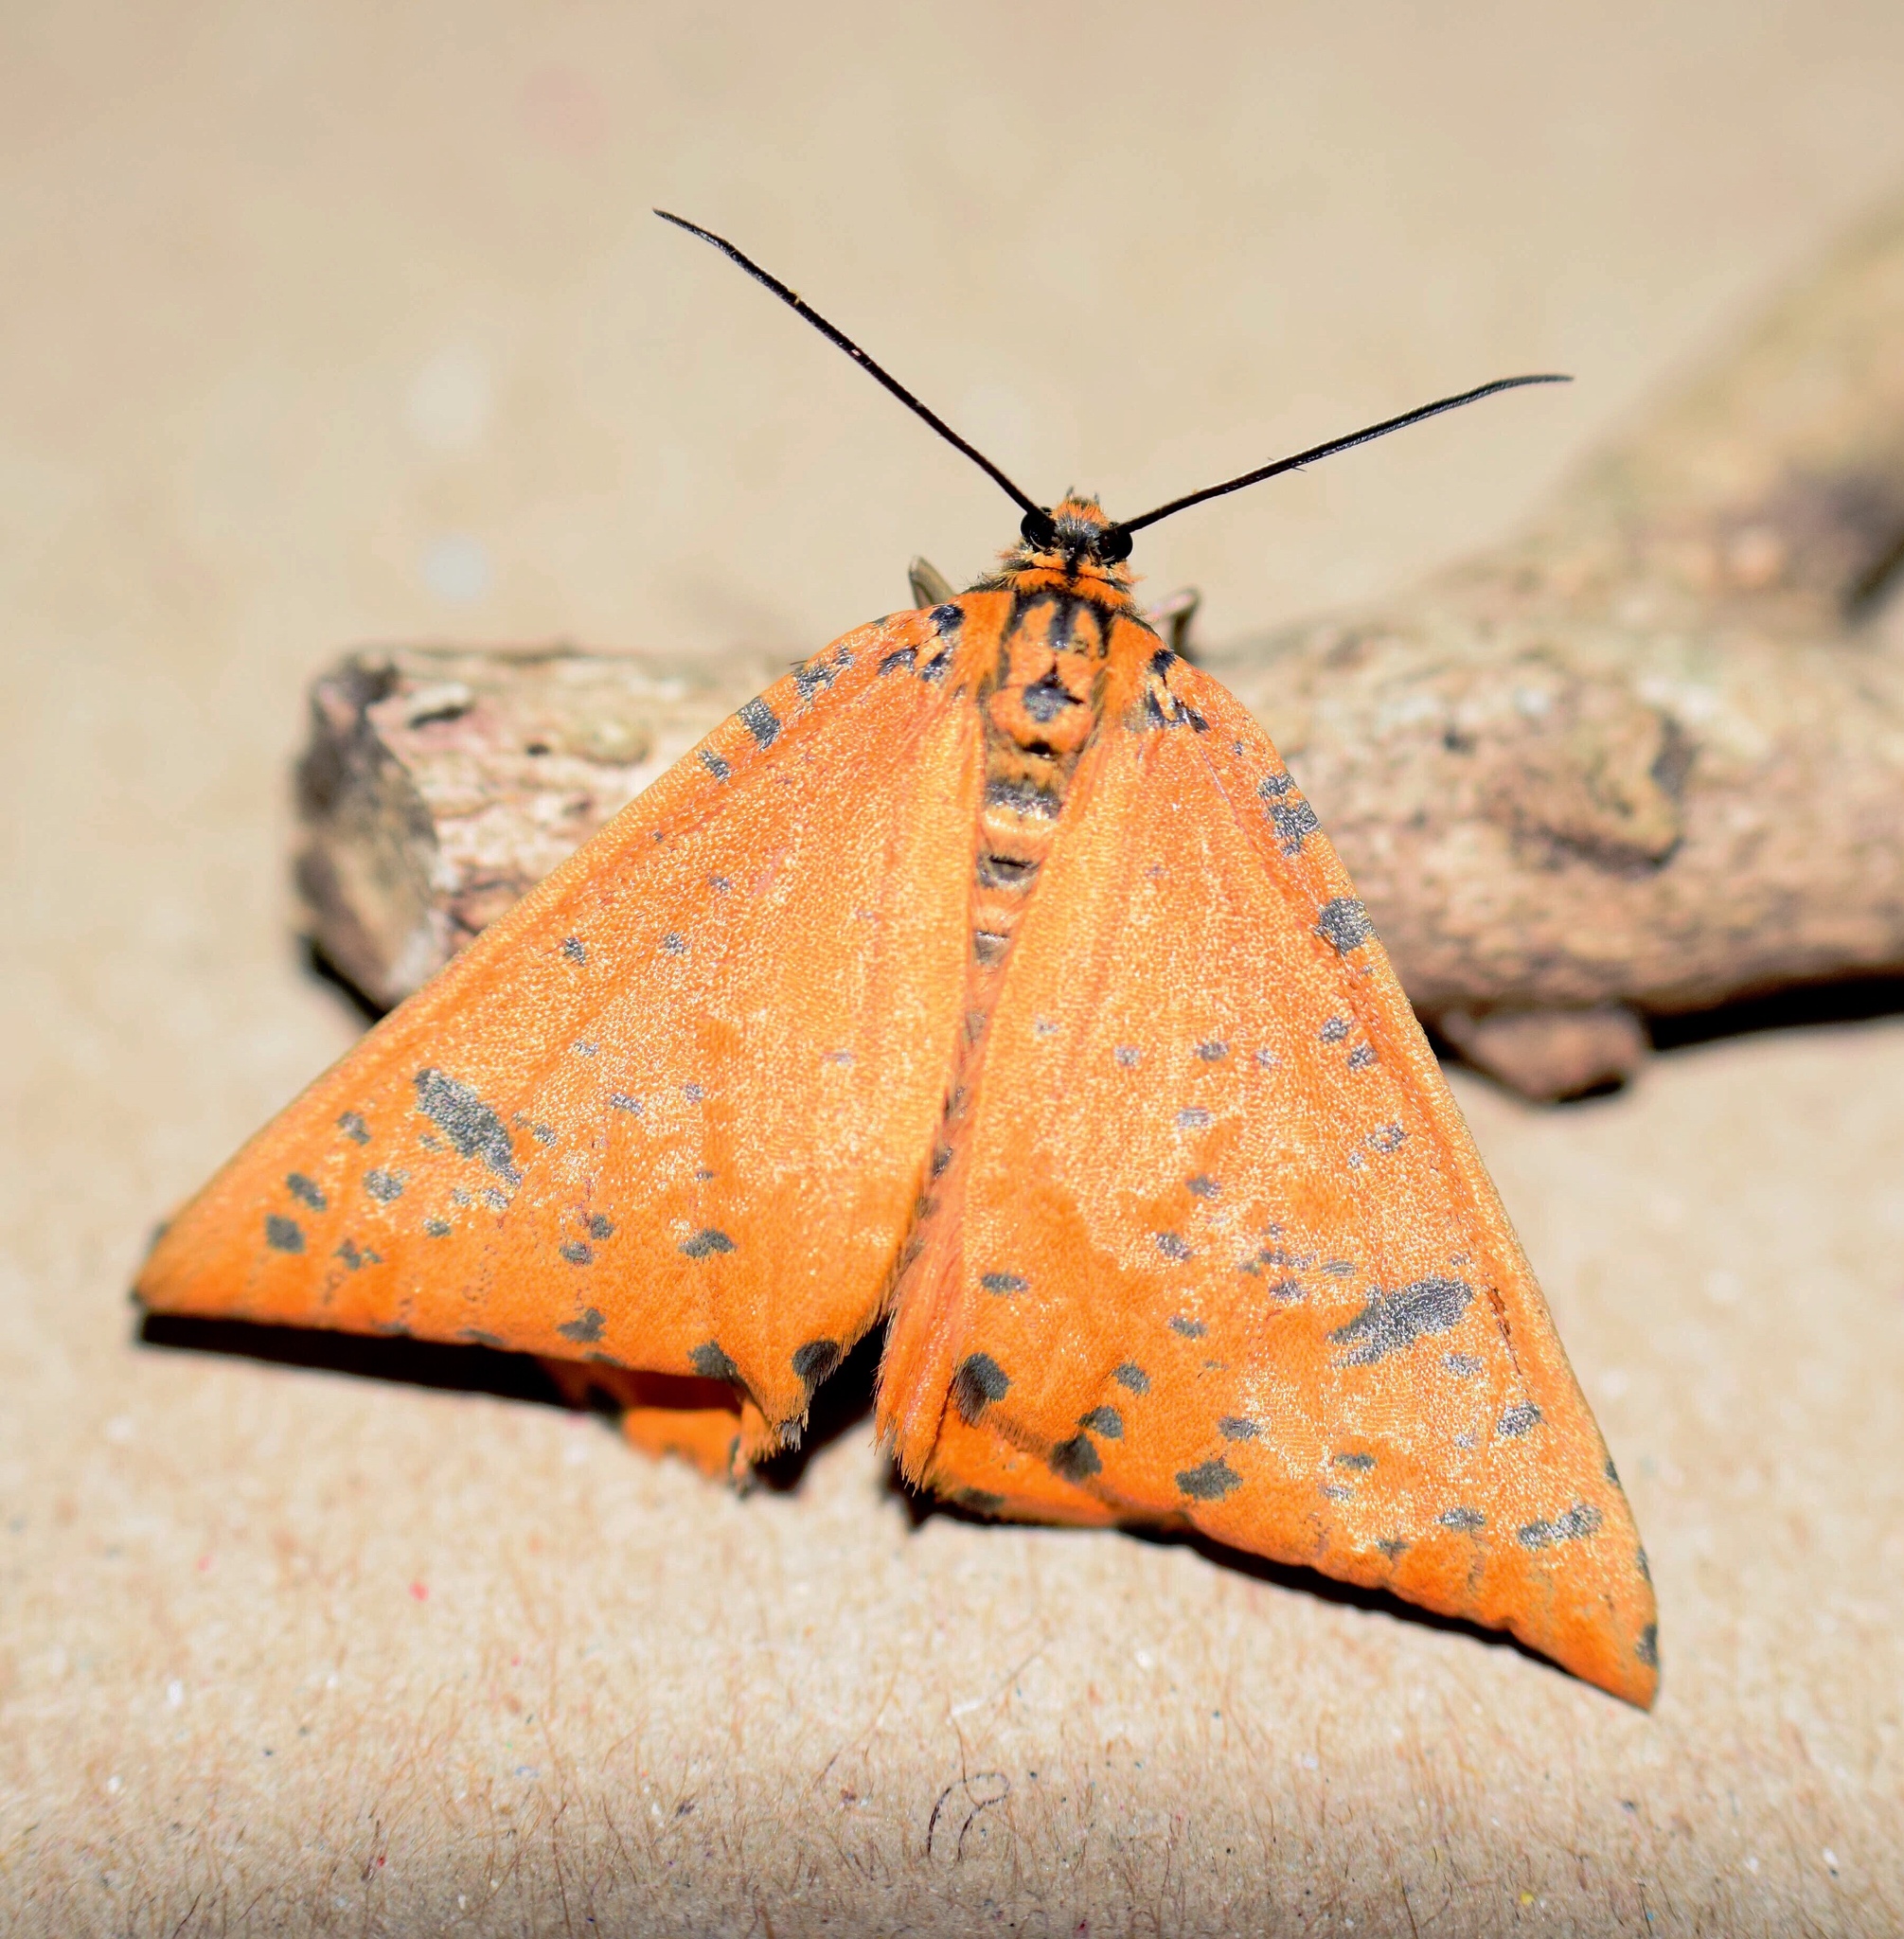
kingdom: Animalia
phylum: Arthropoda
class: Insecta
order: Lepidoptera
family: Geometridae
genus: Zerenopsis
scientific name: Zerenopsis geometrina
